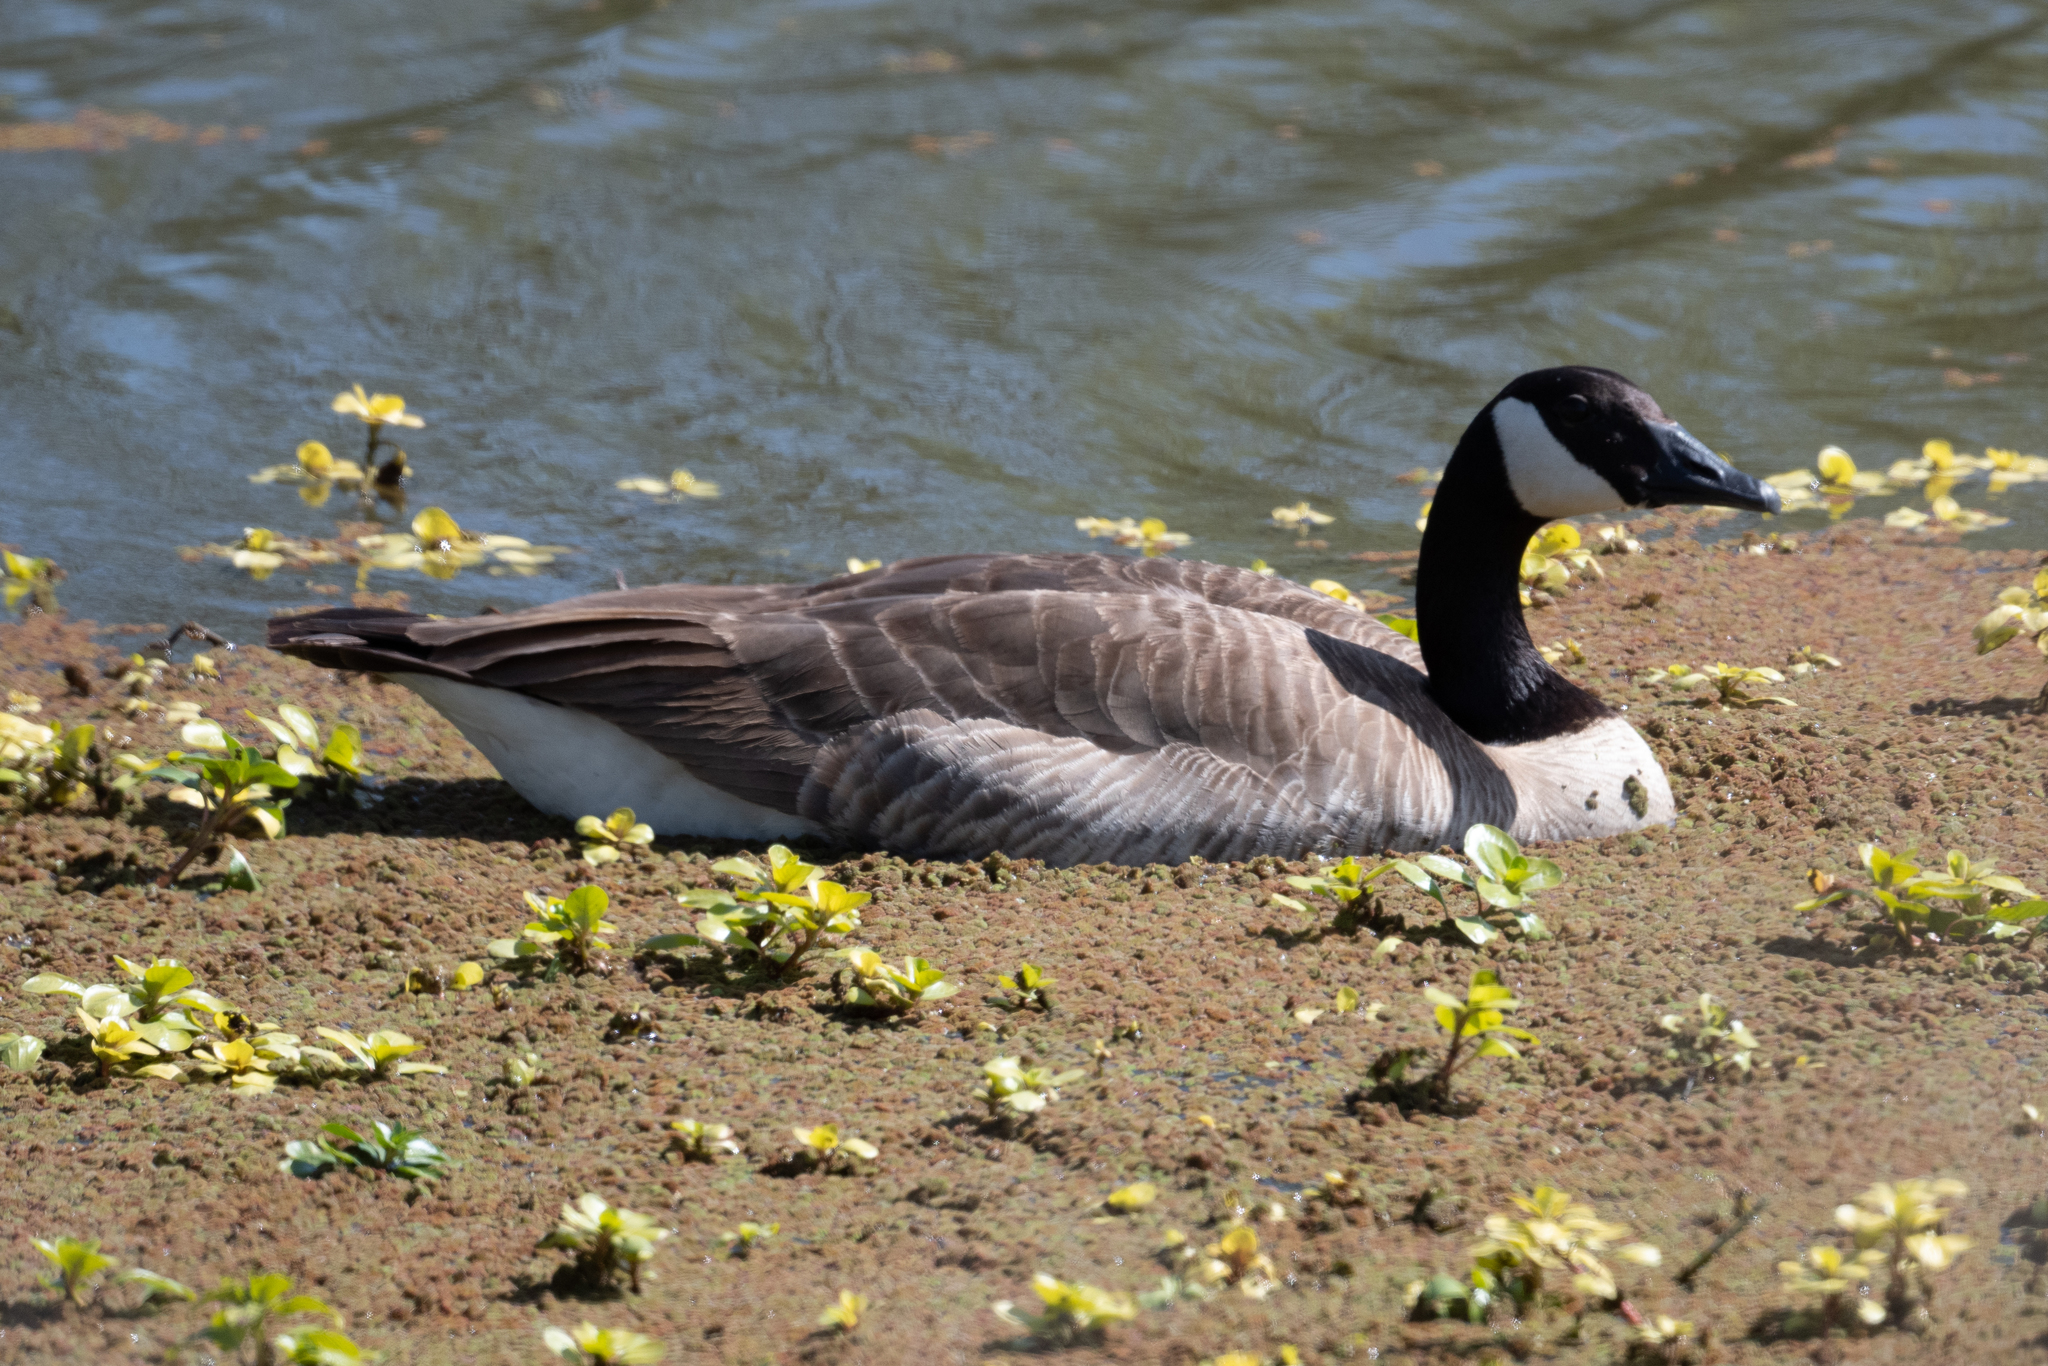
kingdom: Animalia
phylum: Chordata
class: Aves
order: Anseriformes
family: Anatidae
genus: Branta
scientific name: Branta canadensis
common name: Canada goose
